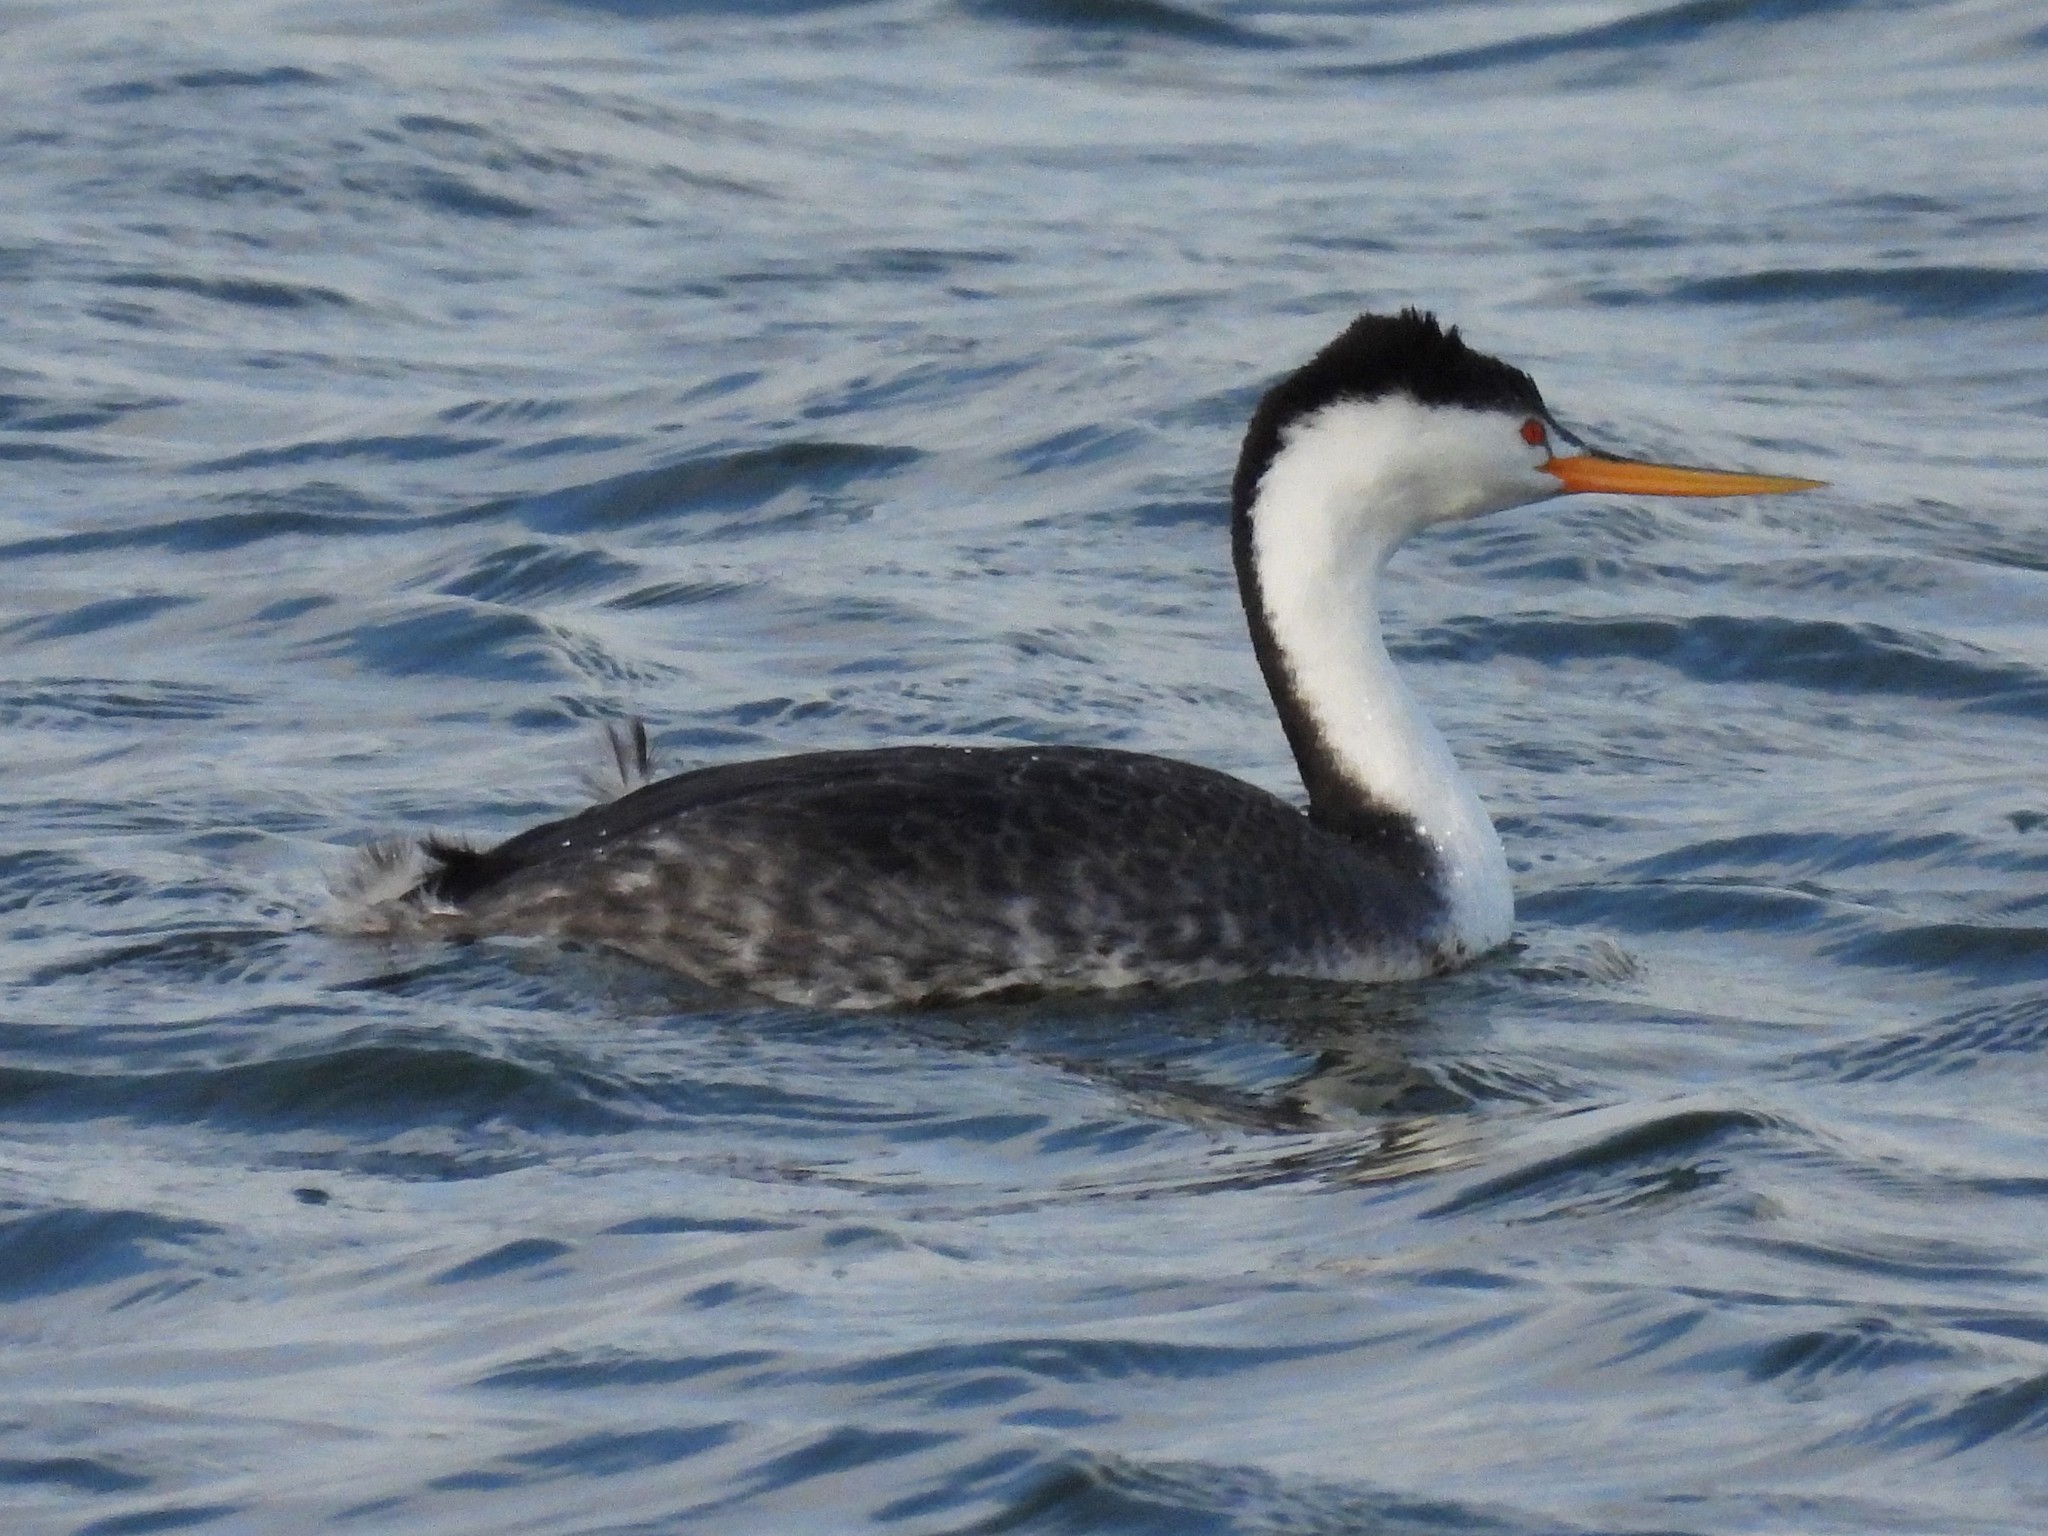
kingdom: Animalia
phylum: Chordata
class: Aves
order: Podicipediformes
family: Podicipedidae
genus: Aechmophorus
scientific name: Aechmophorus clarkii
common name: Clark's grebe
